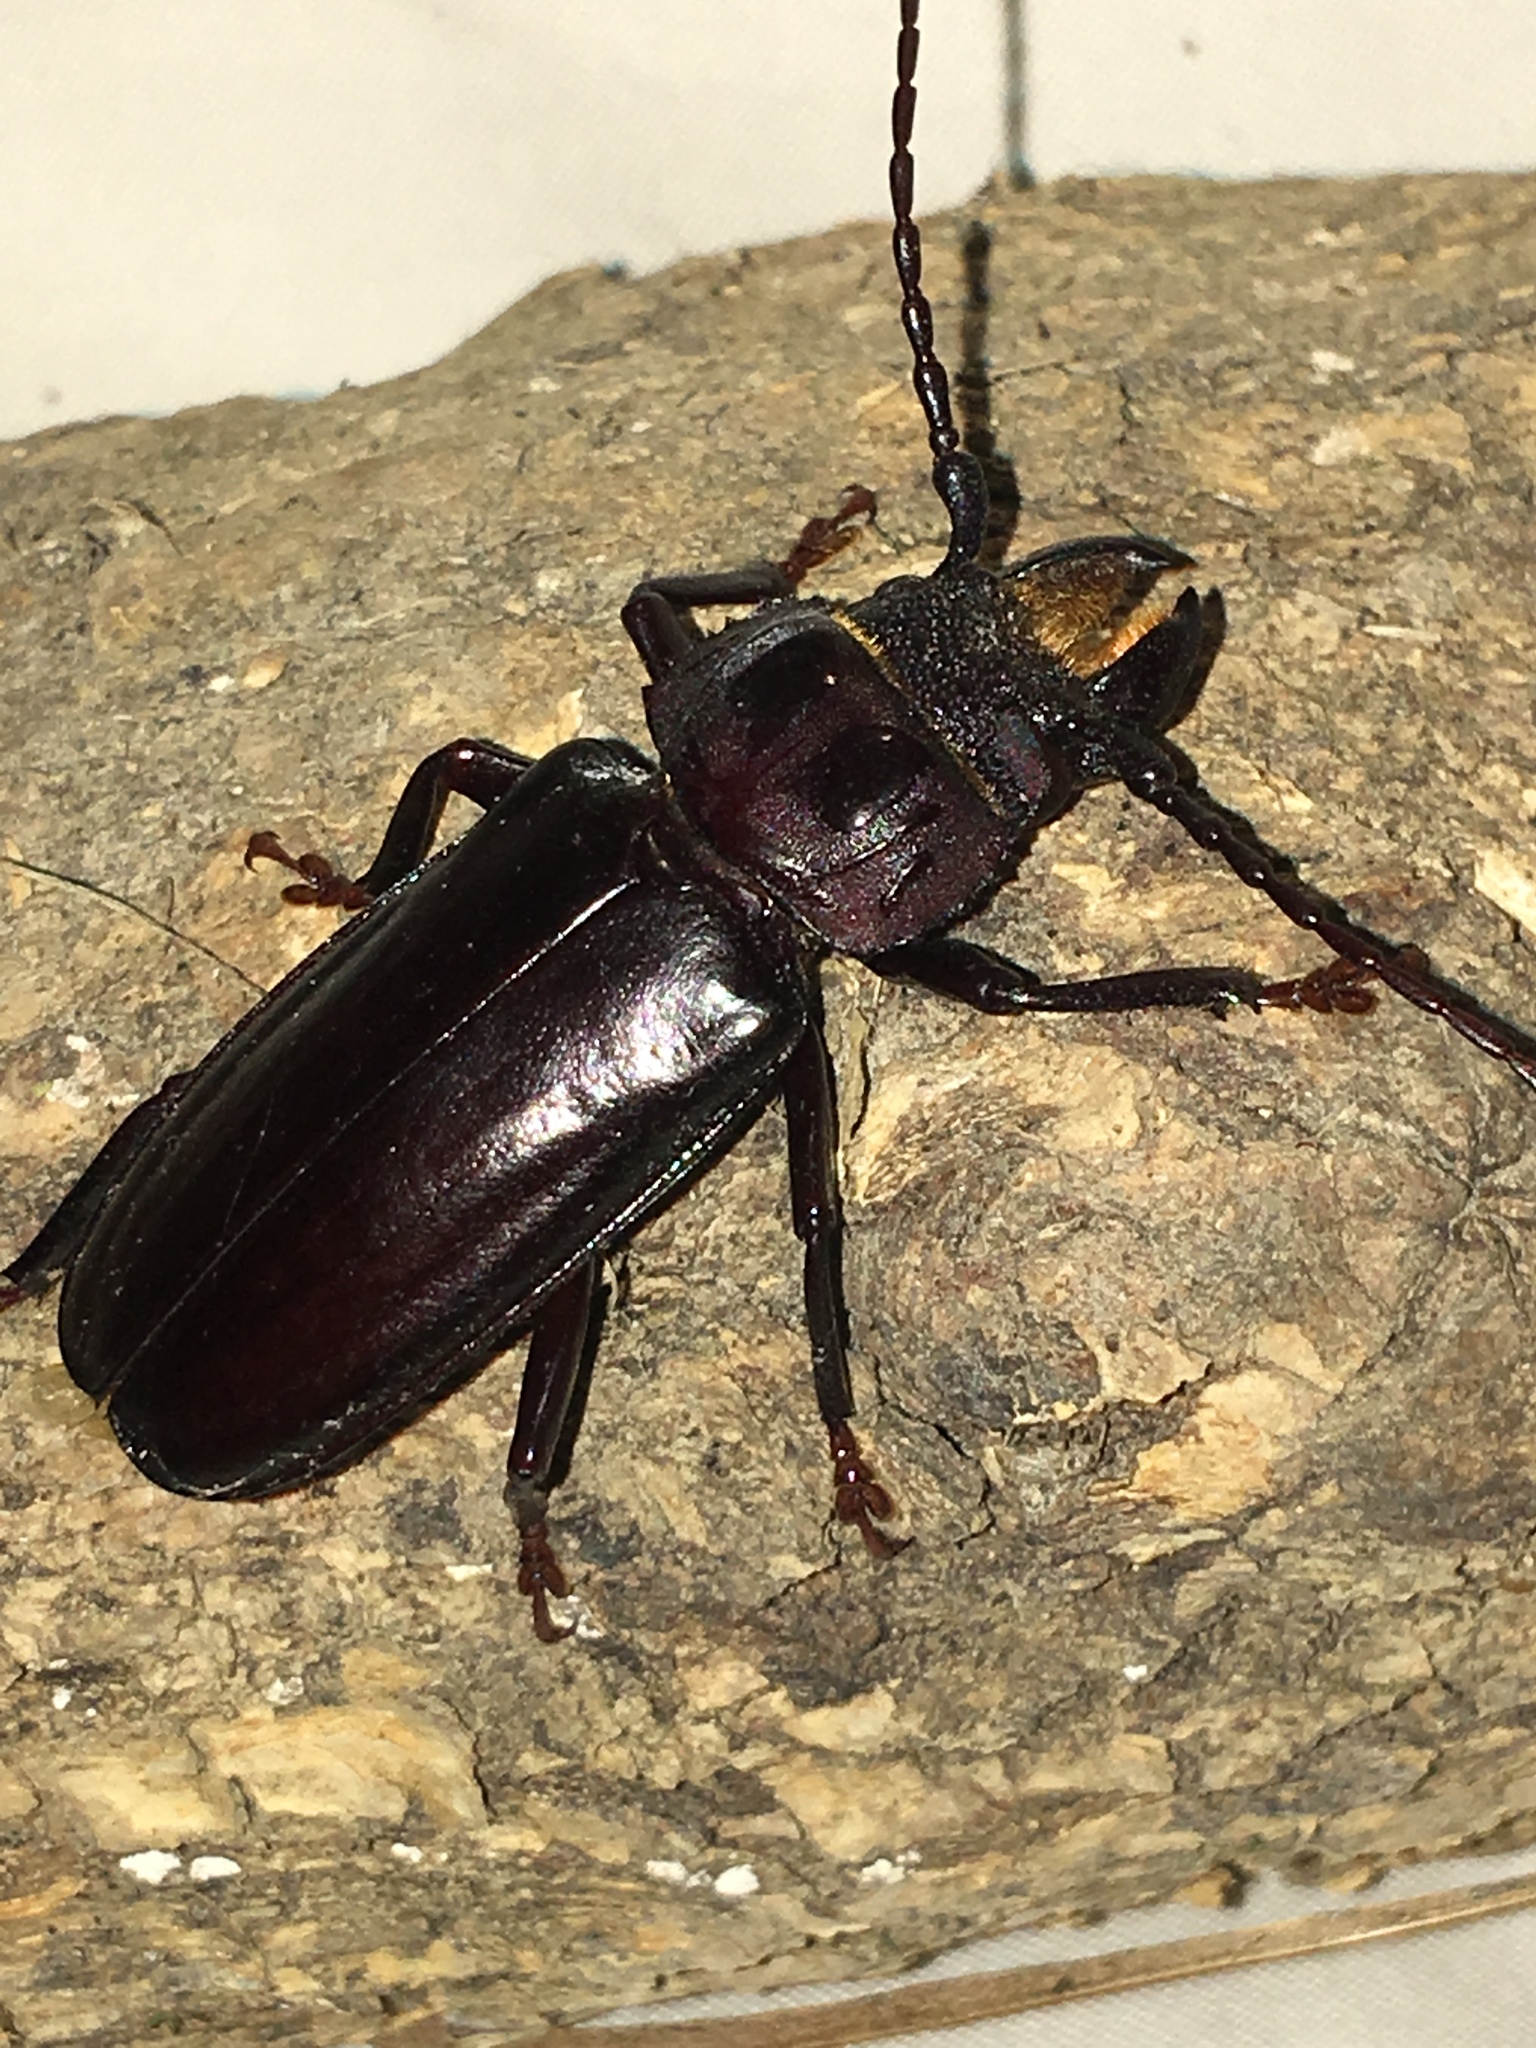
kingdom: Animalia
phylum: Arthropoda
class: Insecta
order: Coleoptera
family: Cerambycidae
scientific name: Cerambycidae
